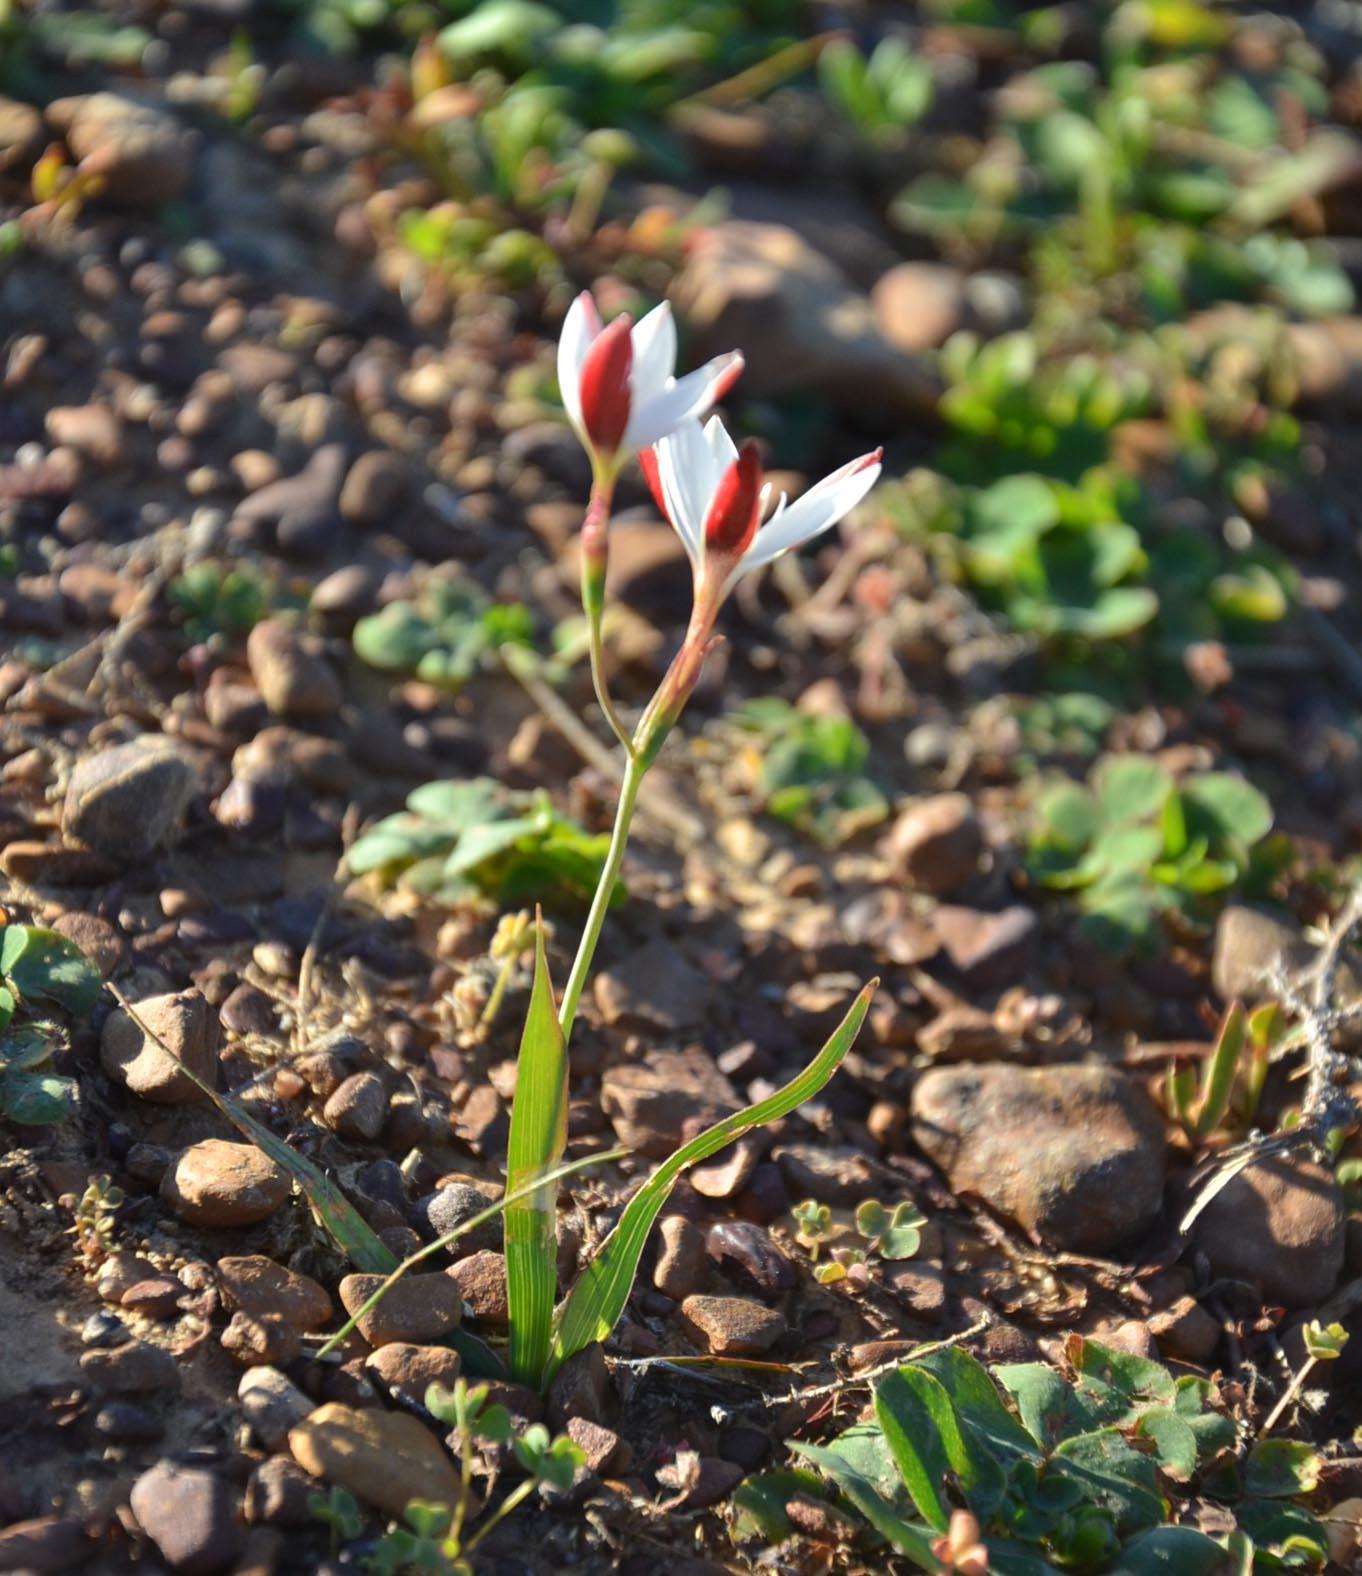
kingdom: Plantae
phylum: Tracheophyta
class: Liliopsida
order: Asparagales
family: Iridaceae
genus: Hesperantha
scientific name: Hesperantha cucullata
